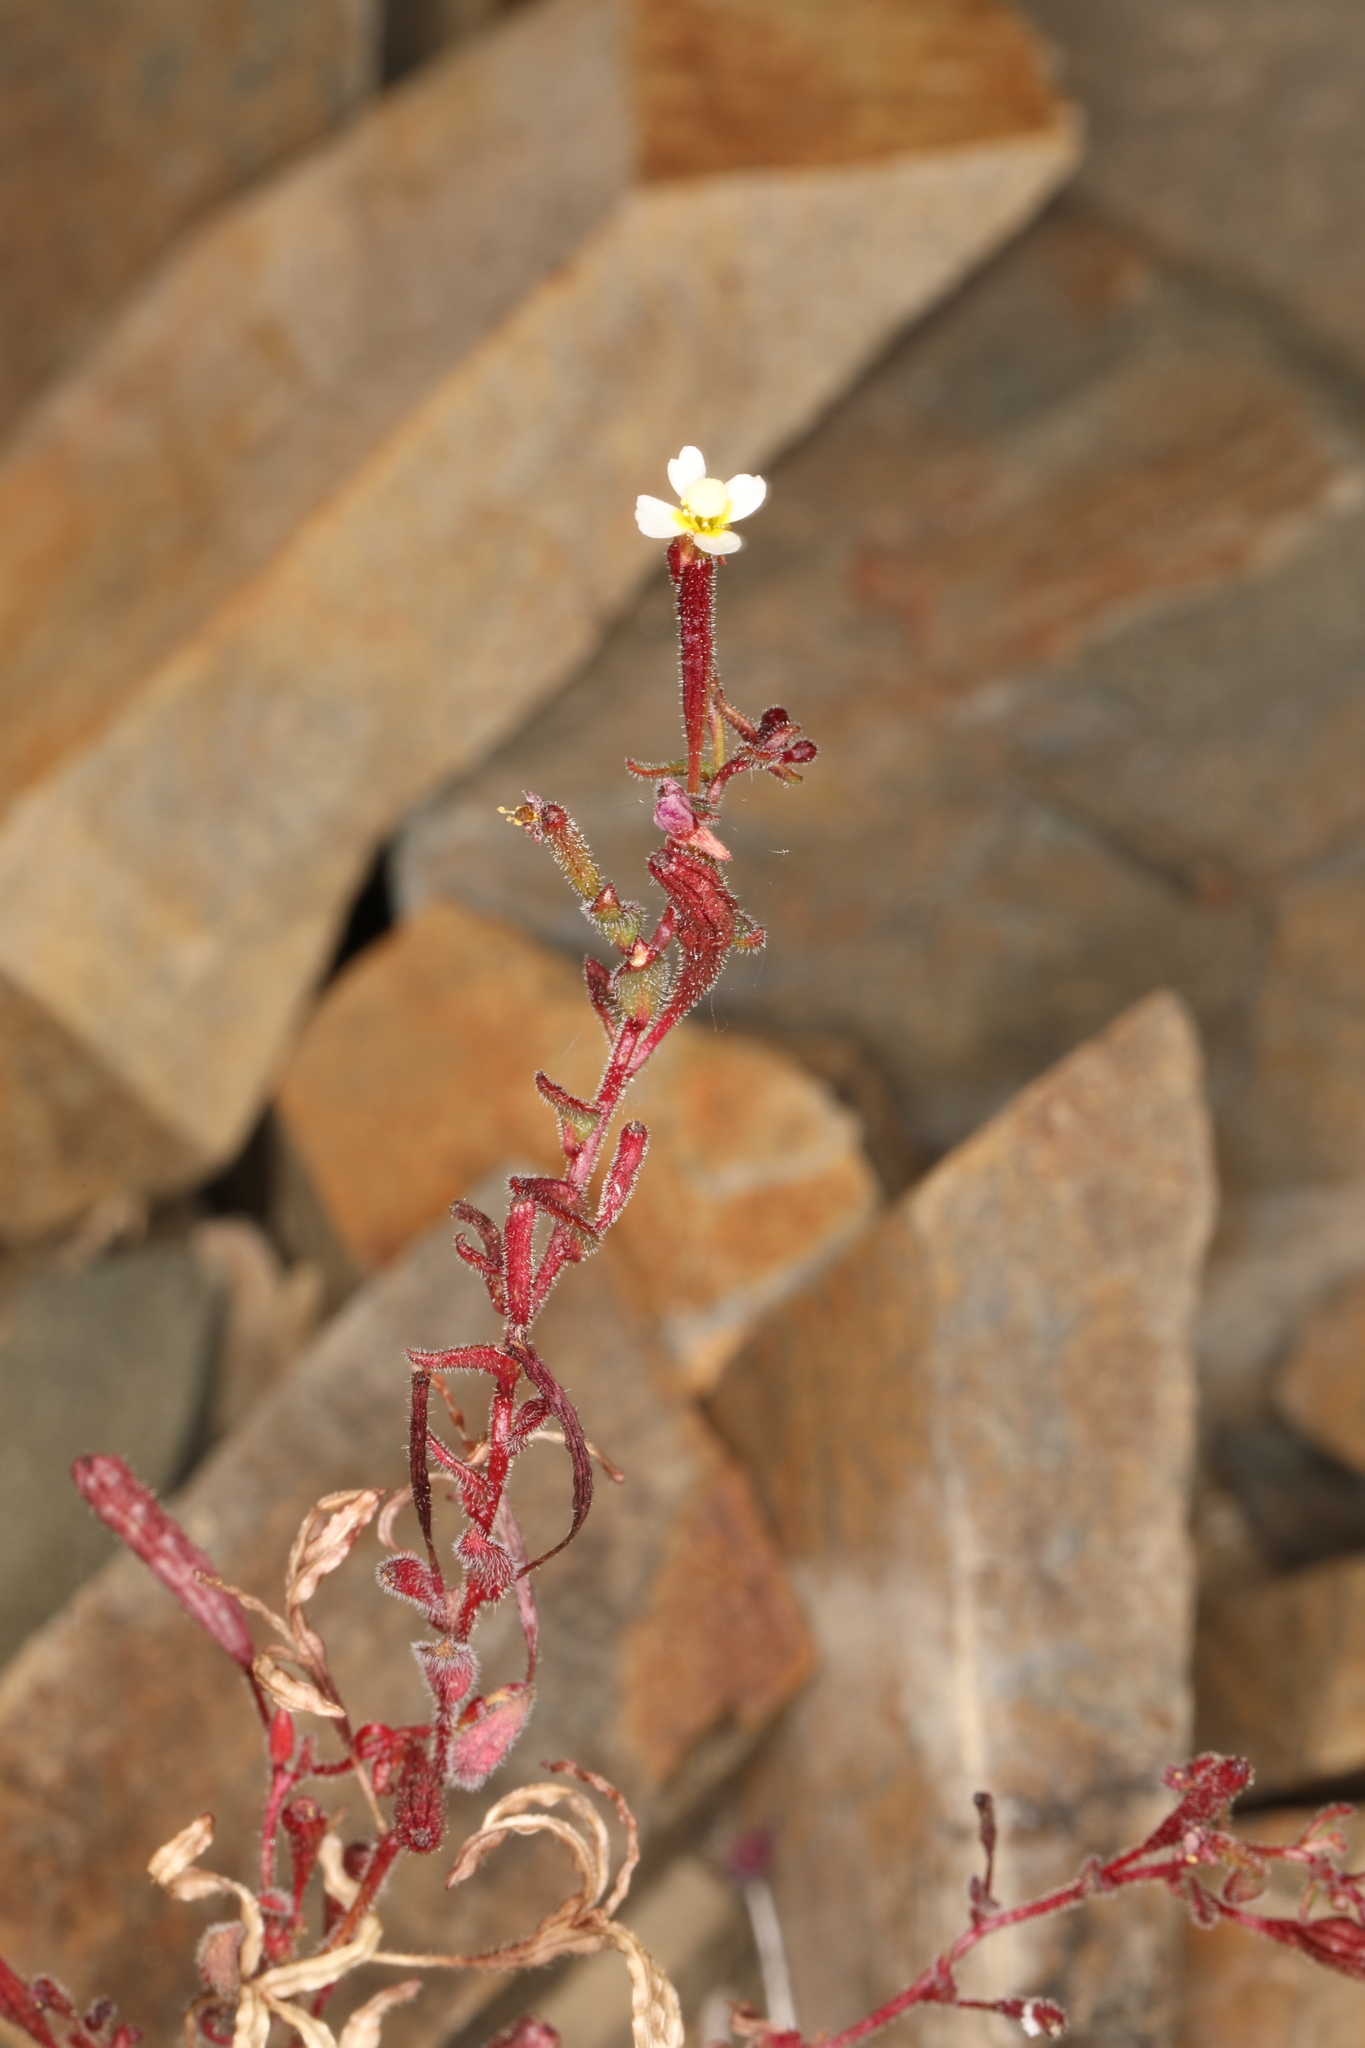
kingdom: Plantae
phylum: Tracheophyta
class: Magnoliopsida
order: Myrtales
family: Onagraceae
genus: Chylismiella
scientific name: Chylismiella pterosperma
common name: Wingfruit suncup
